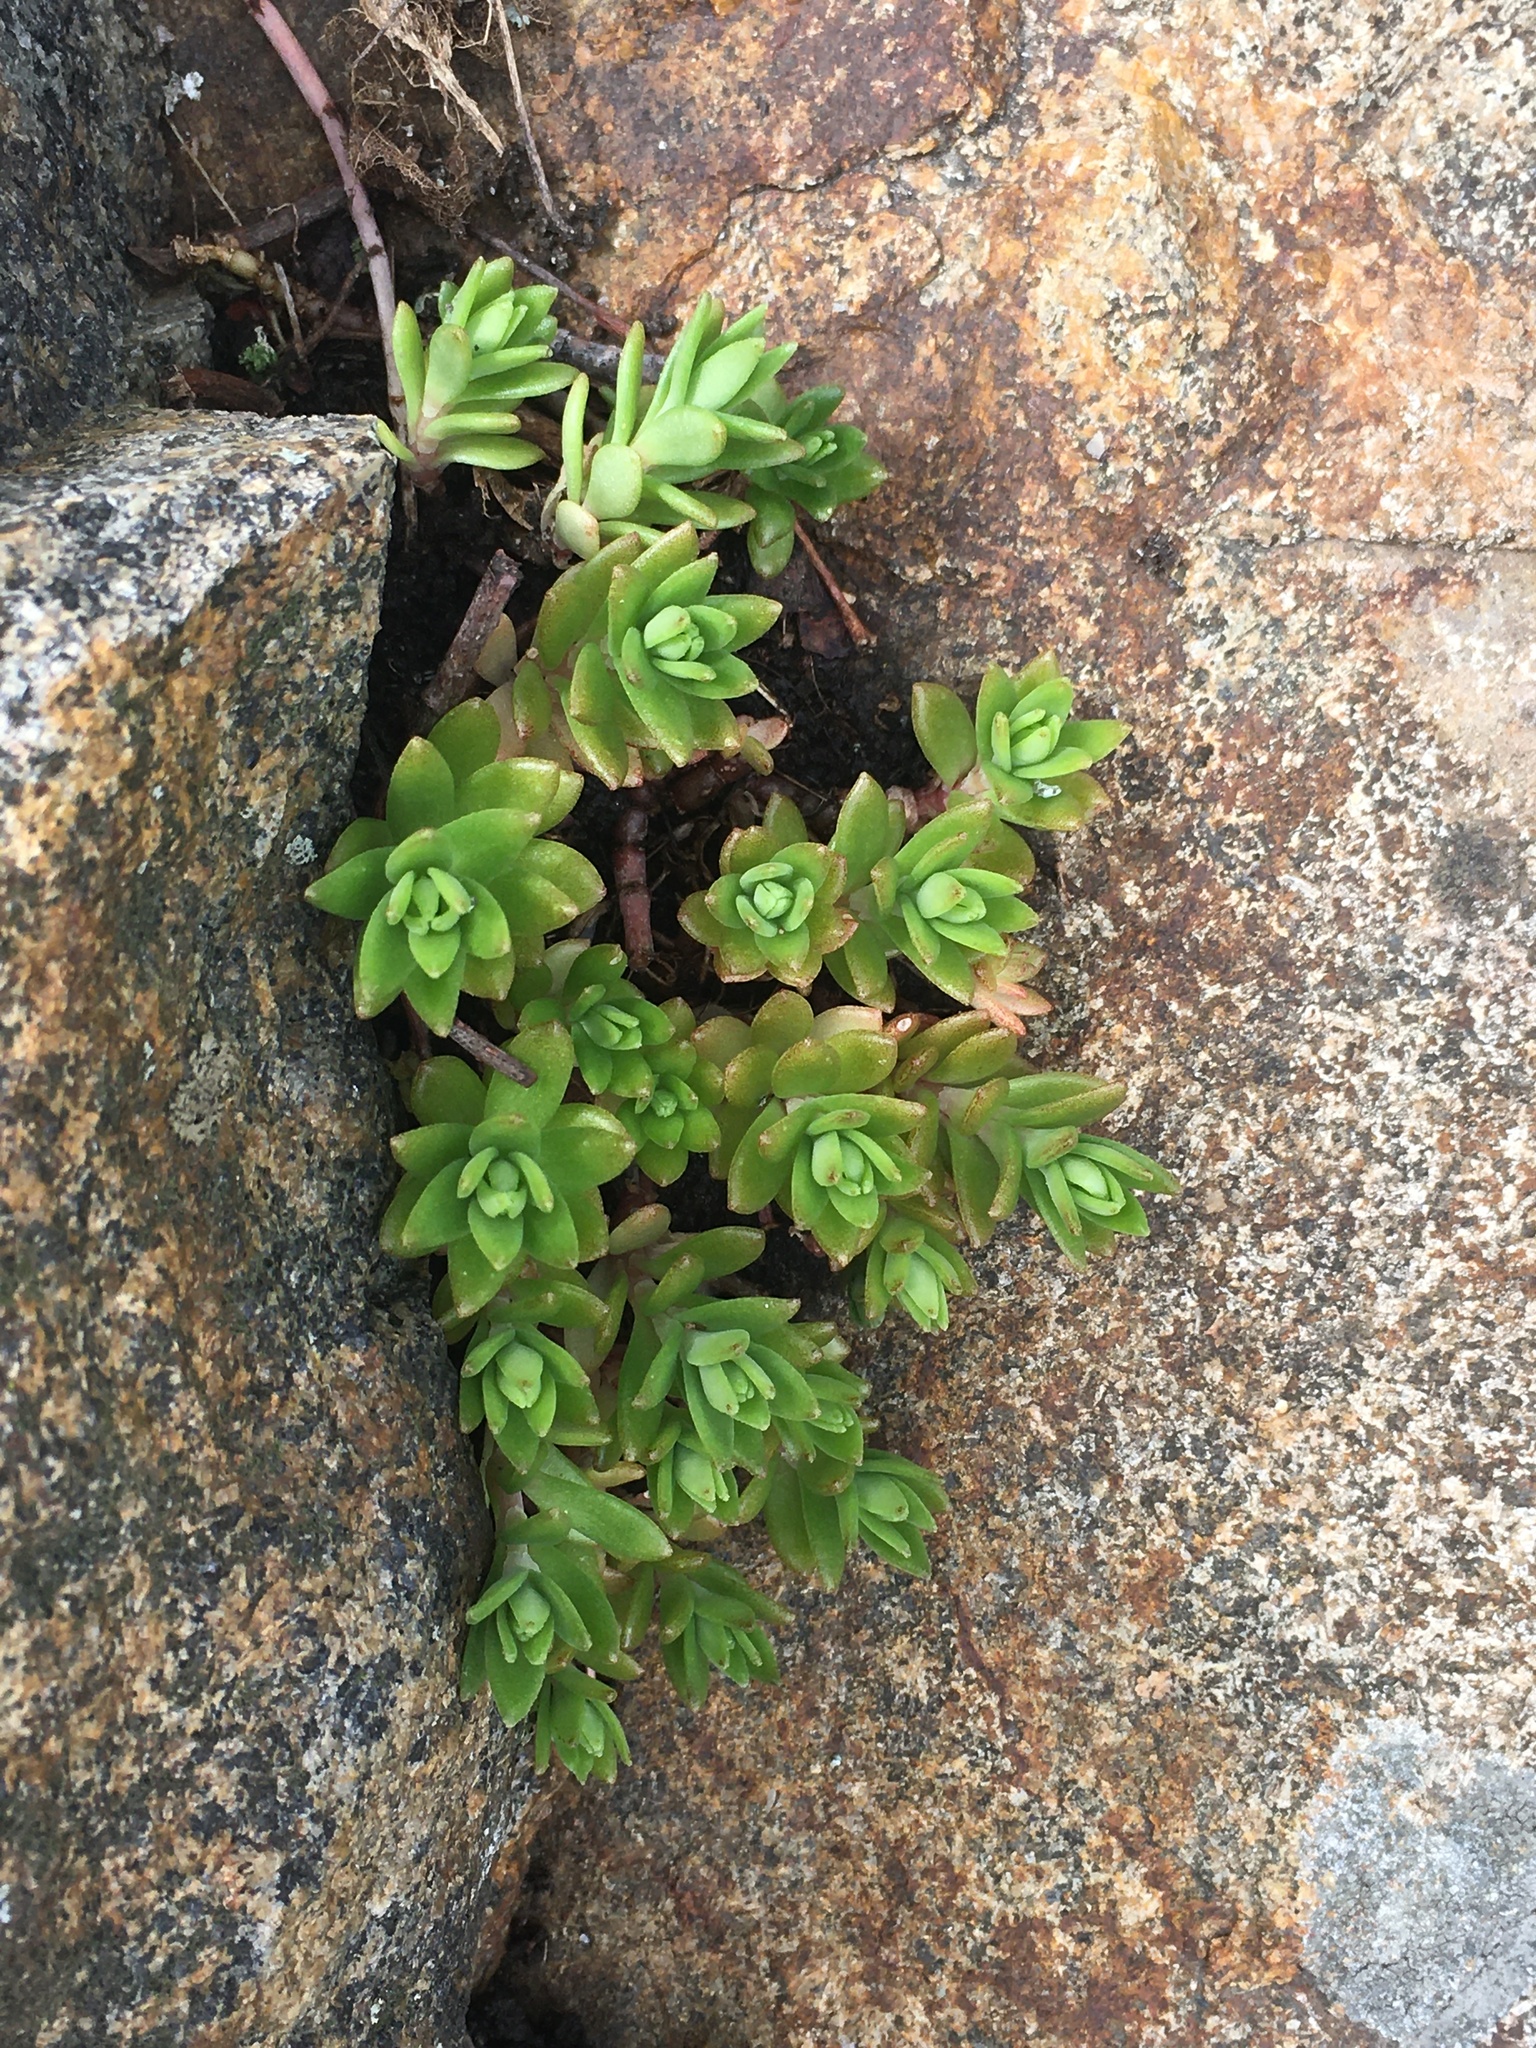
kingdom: Plantae
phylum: Tracheophyta
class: Magnoliopsida
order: Saxifragales
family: Crassulaceae
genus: Sedum
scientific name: Sedum sarmentosum
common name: Stringy stonecrop
